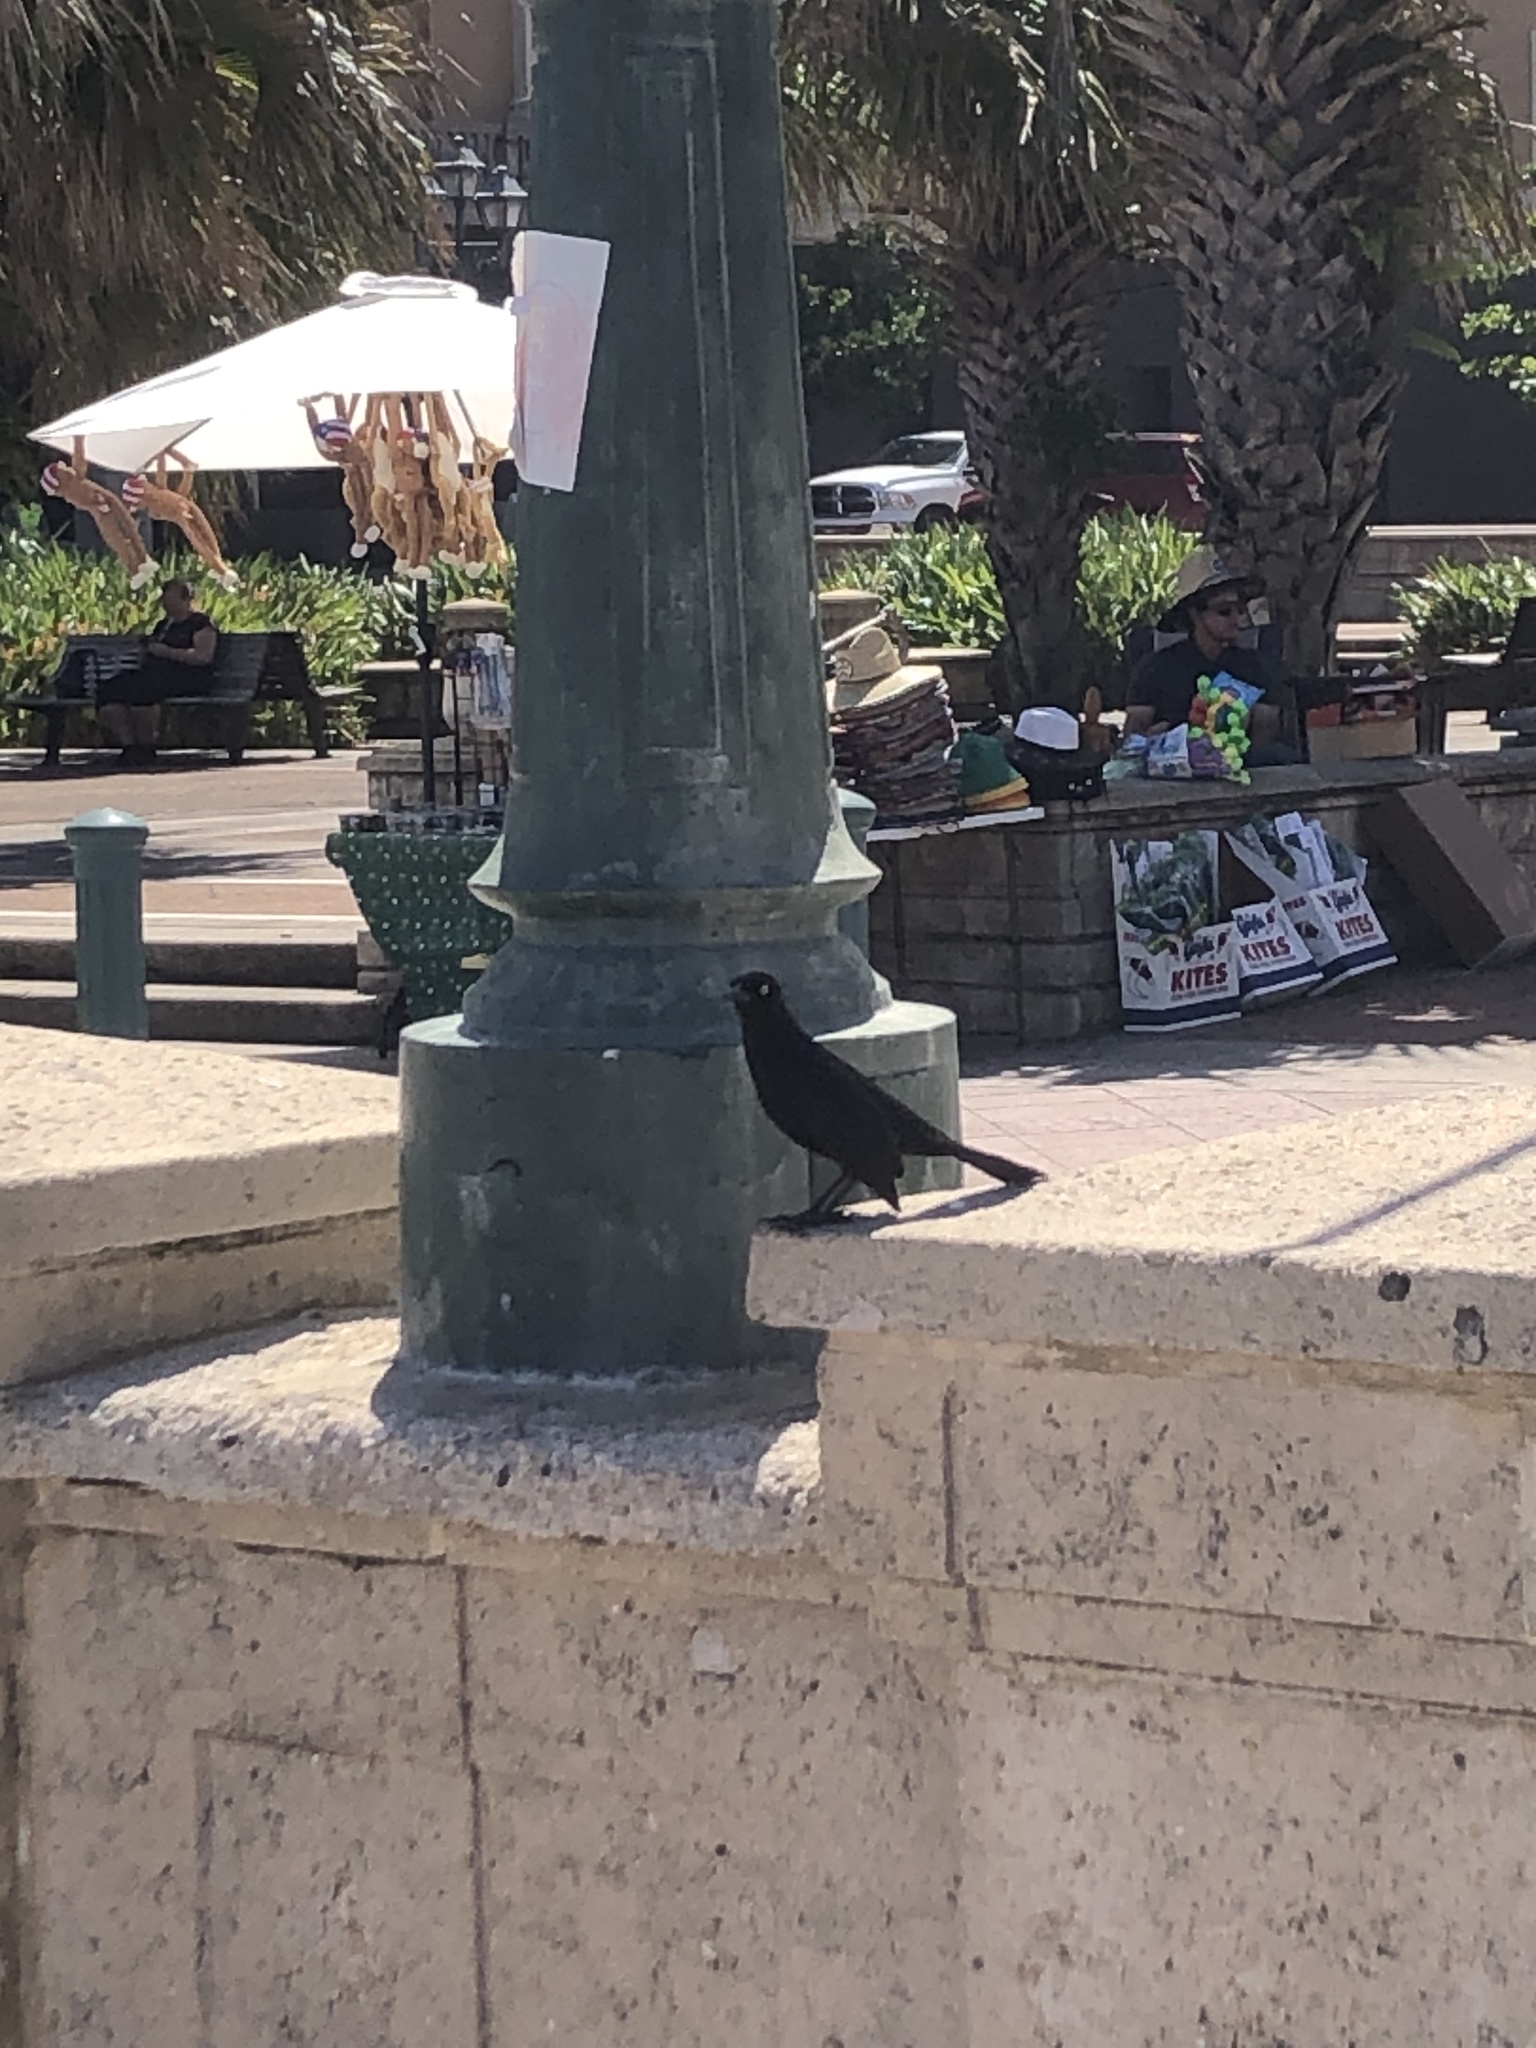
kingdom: Animalia
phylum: Chordata
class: Aves
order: Passeriformes
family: Icteridae
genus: Quiscalus
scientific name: Quiscalus niger
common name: Greater antillean grackle
